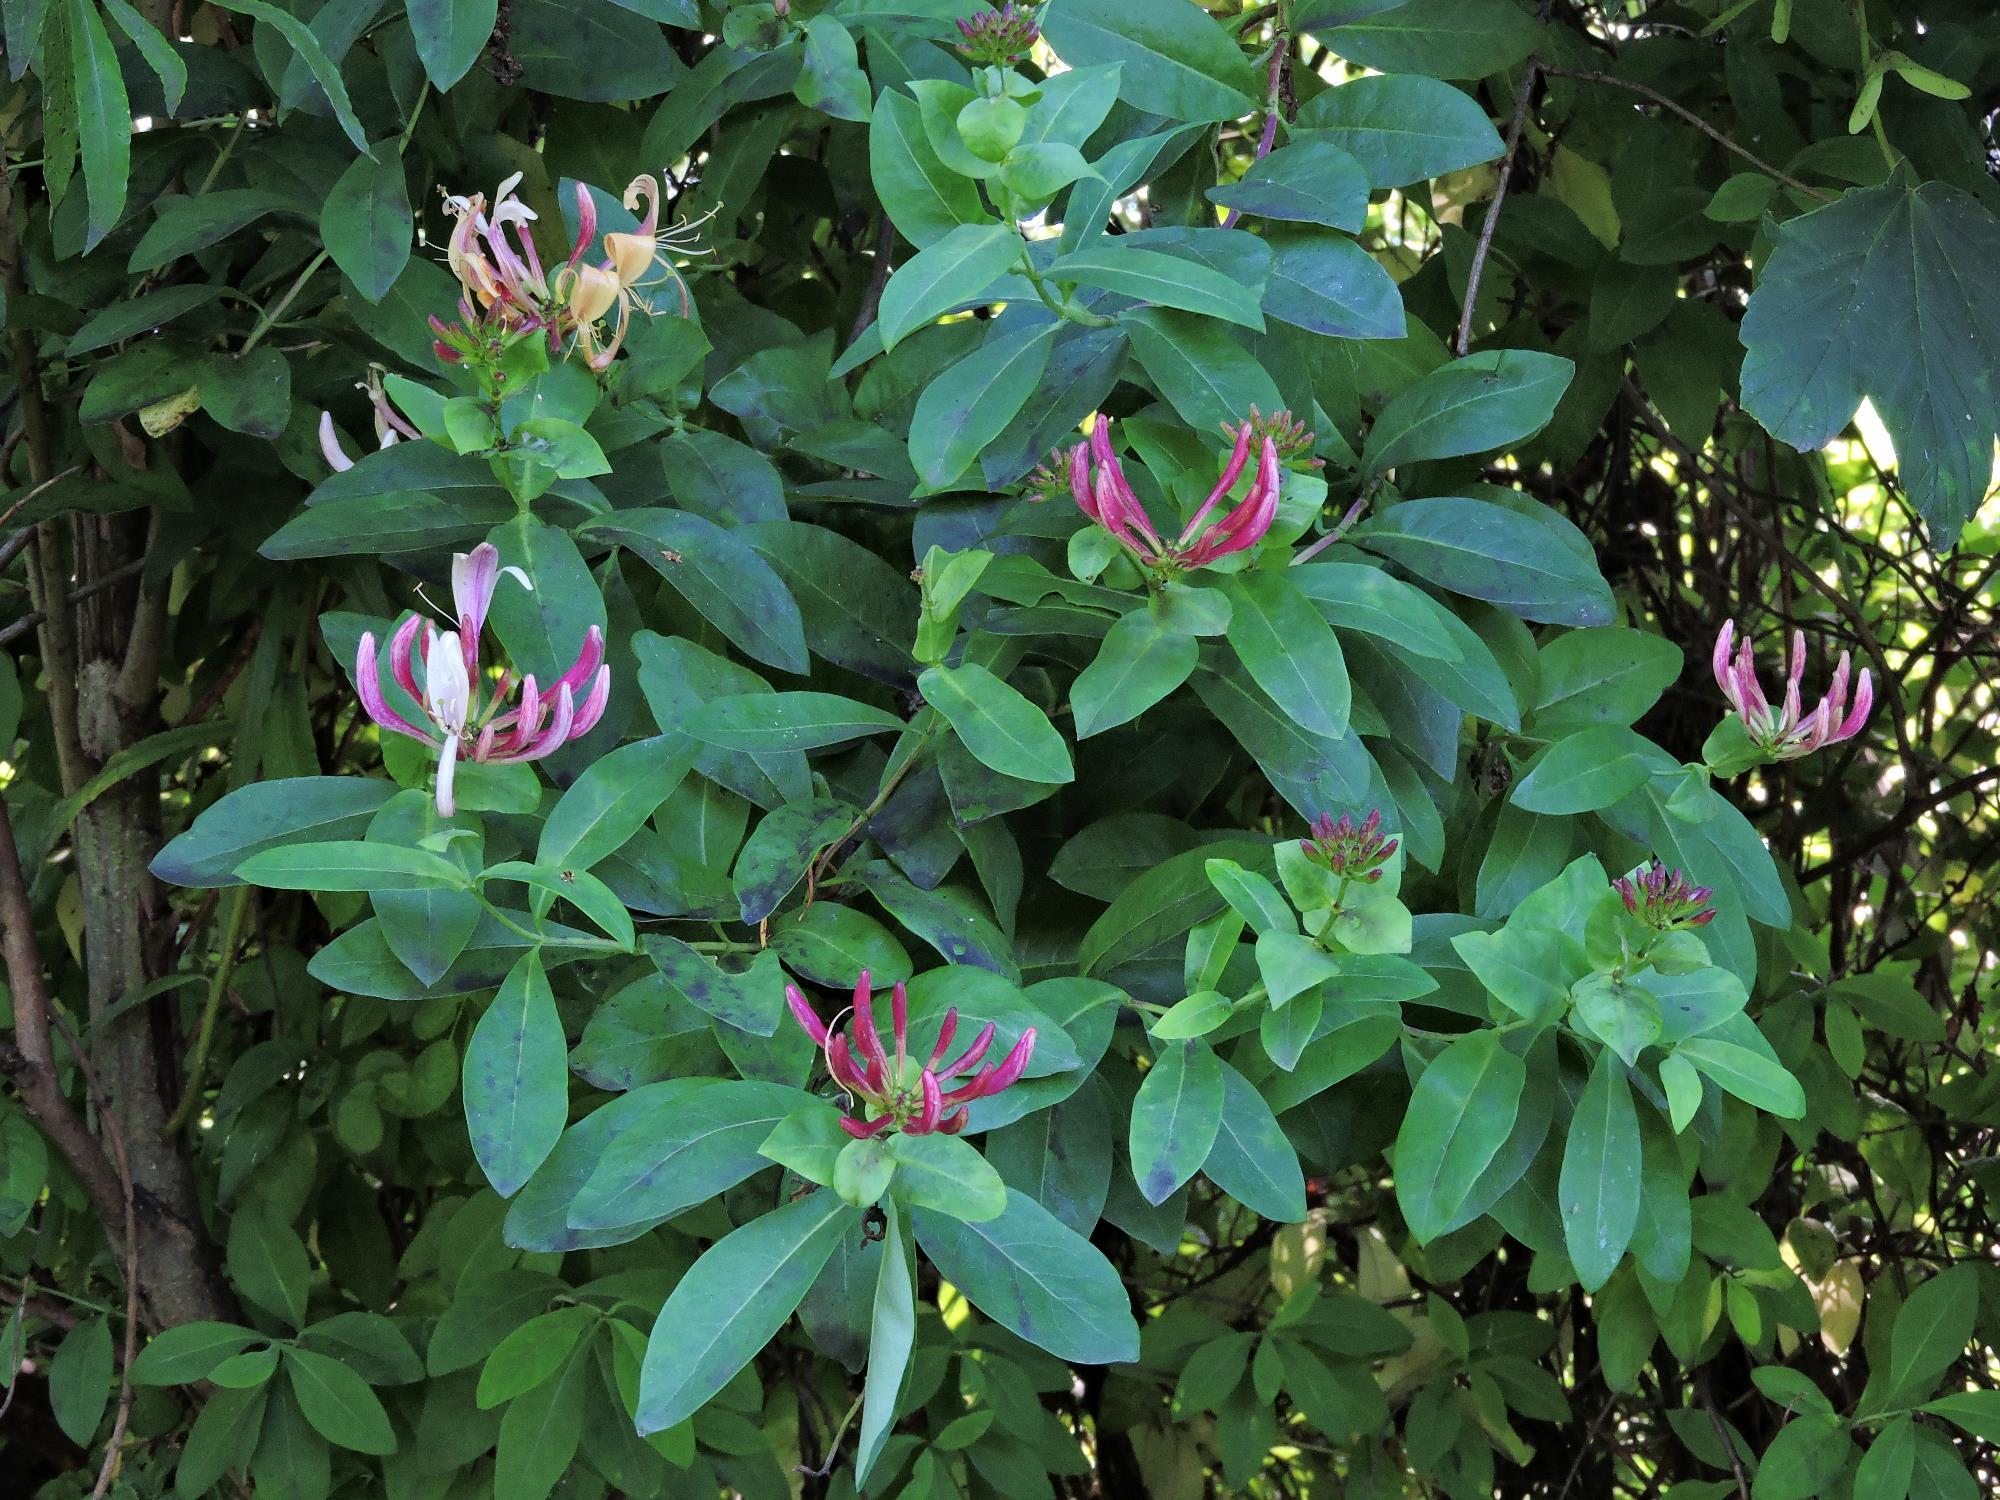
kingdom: Plantae
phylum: Tracheophyta
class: Magnoliopsida
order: Dipsacales
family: Caprifoliaceae
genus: Lonicera
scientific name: Lonicera periclymenum
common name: European honeysuckle
